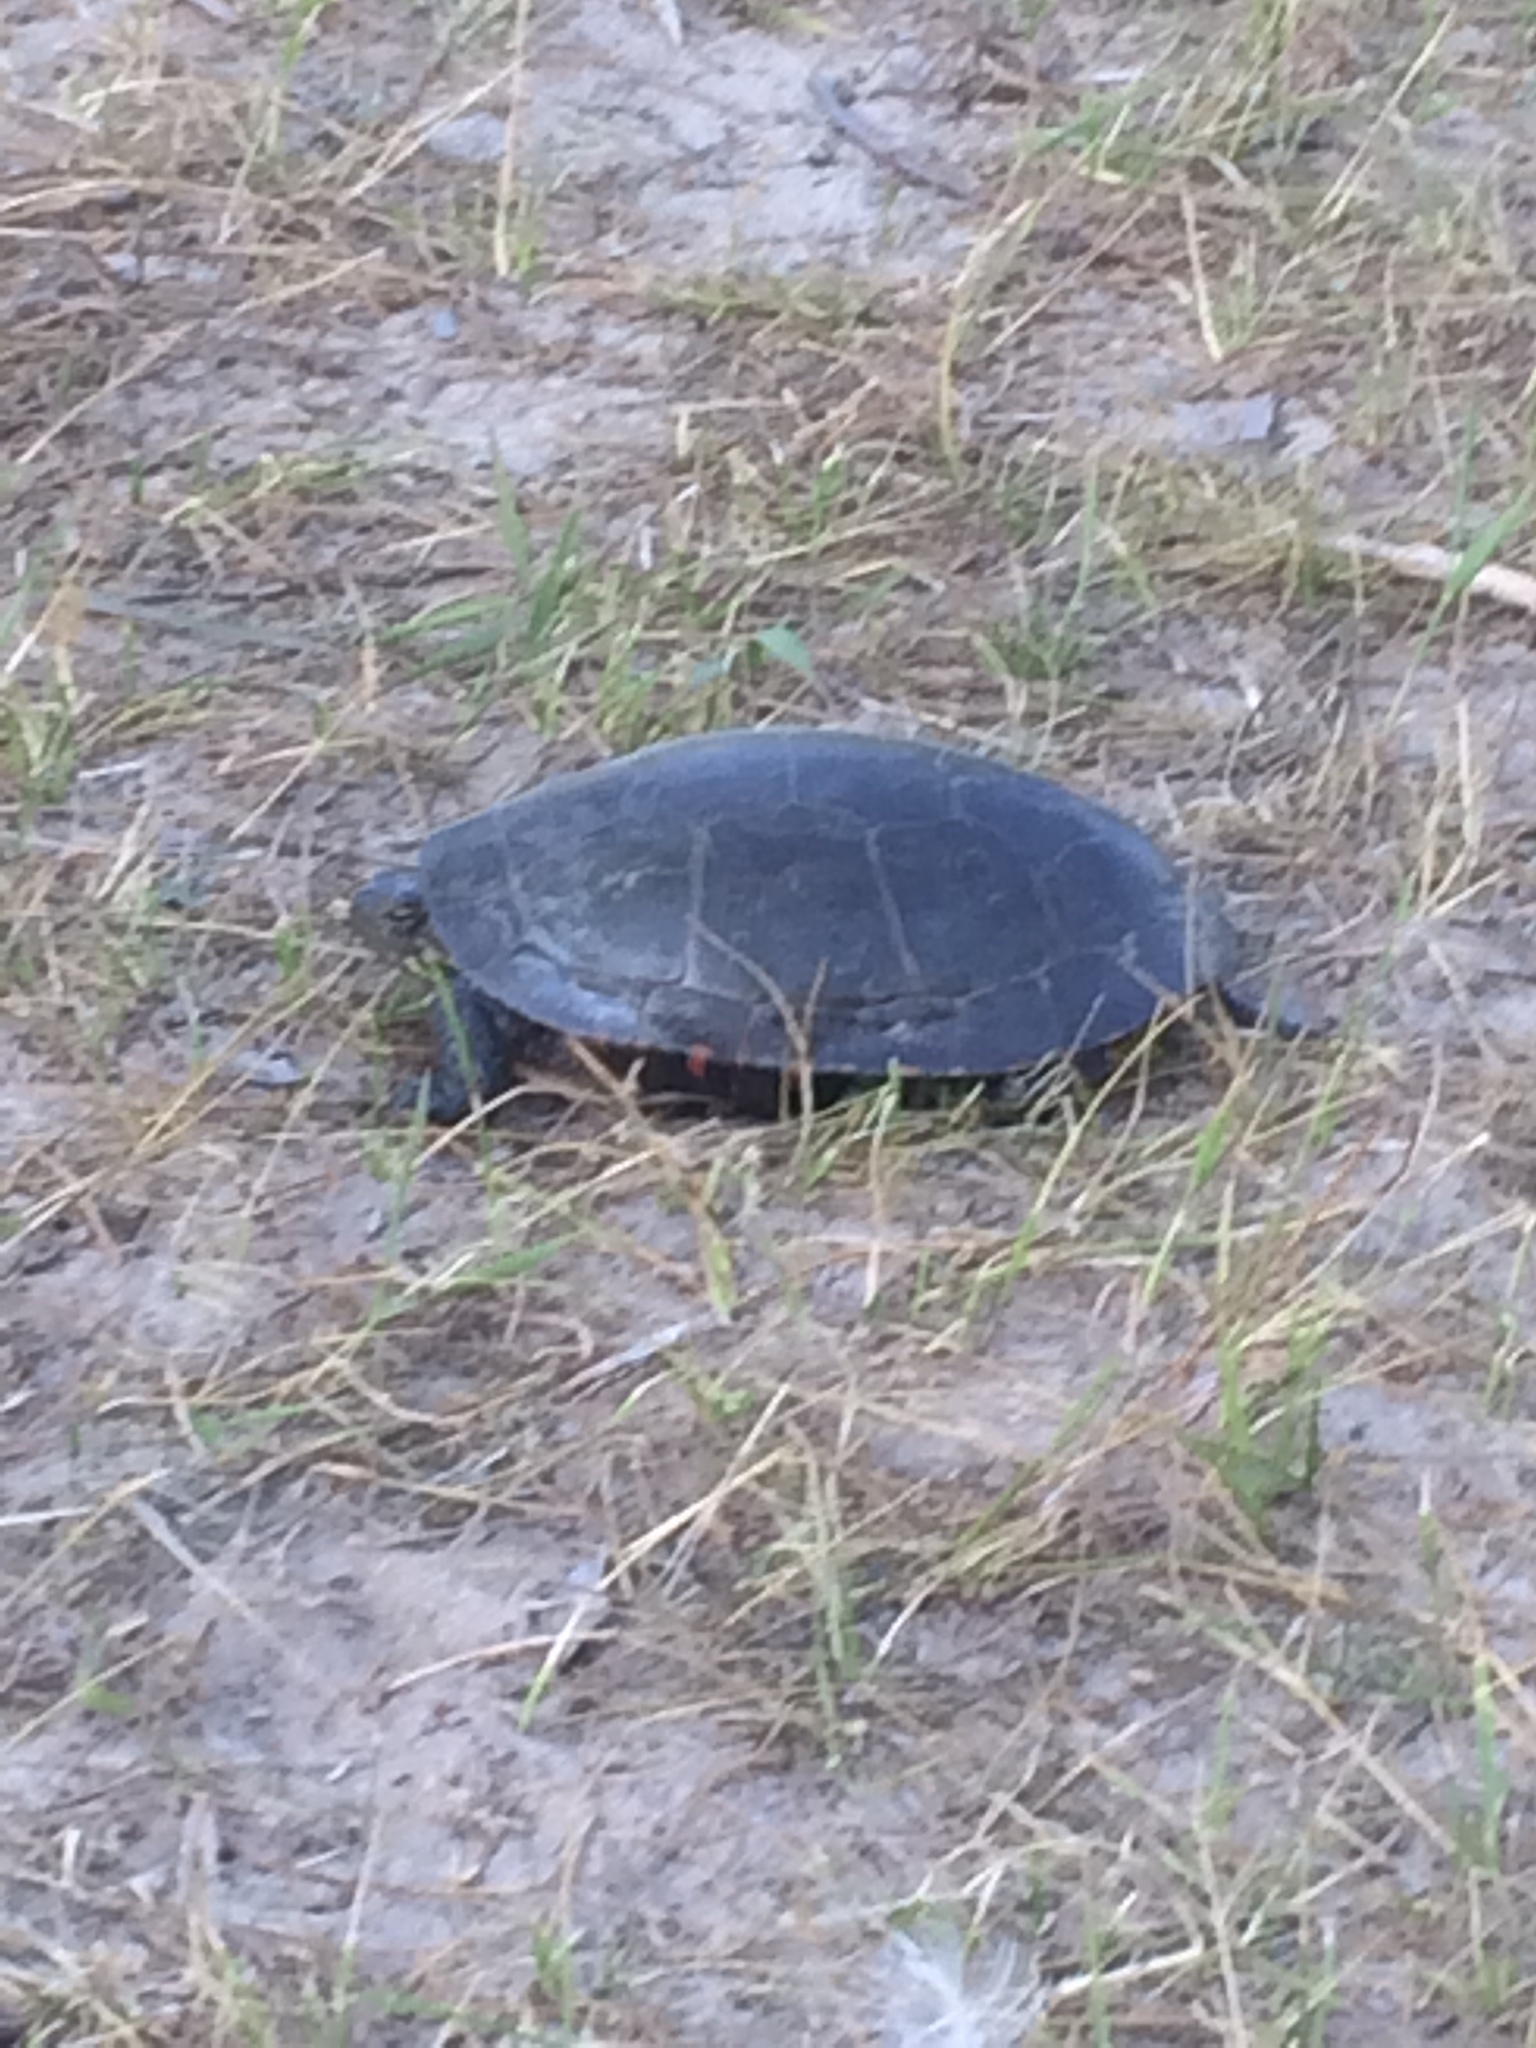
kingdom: Animalia
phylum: Chordata
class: Testudines
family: Emydidae
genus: Chrysemys
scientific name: Chrysemys picta
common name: Painted turtle
